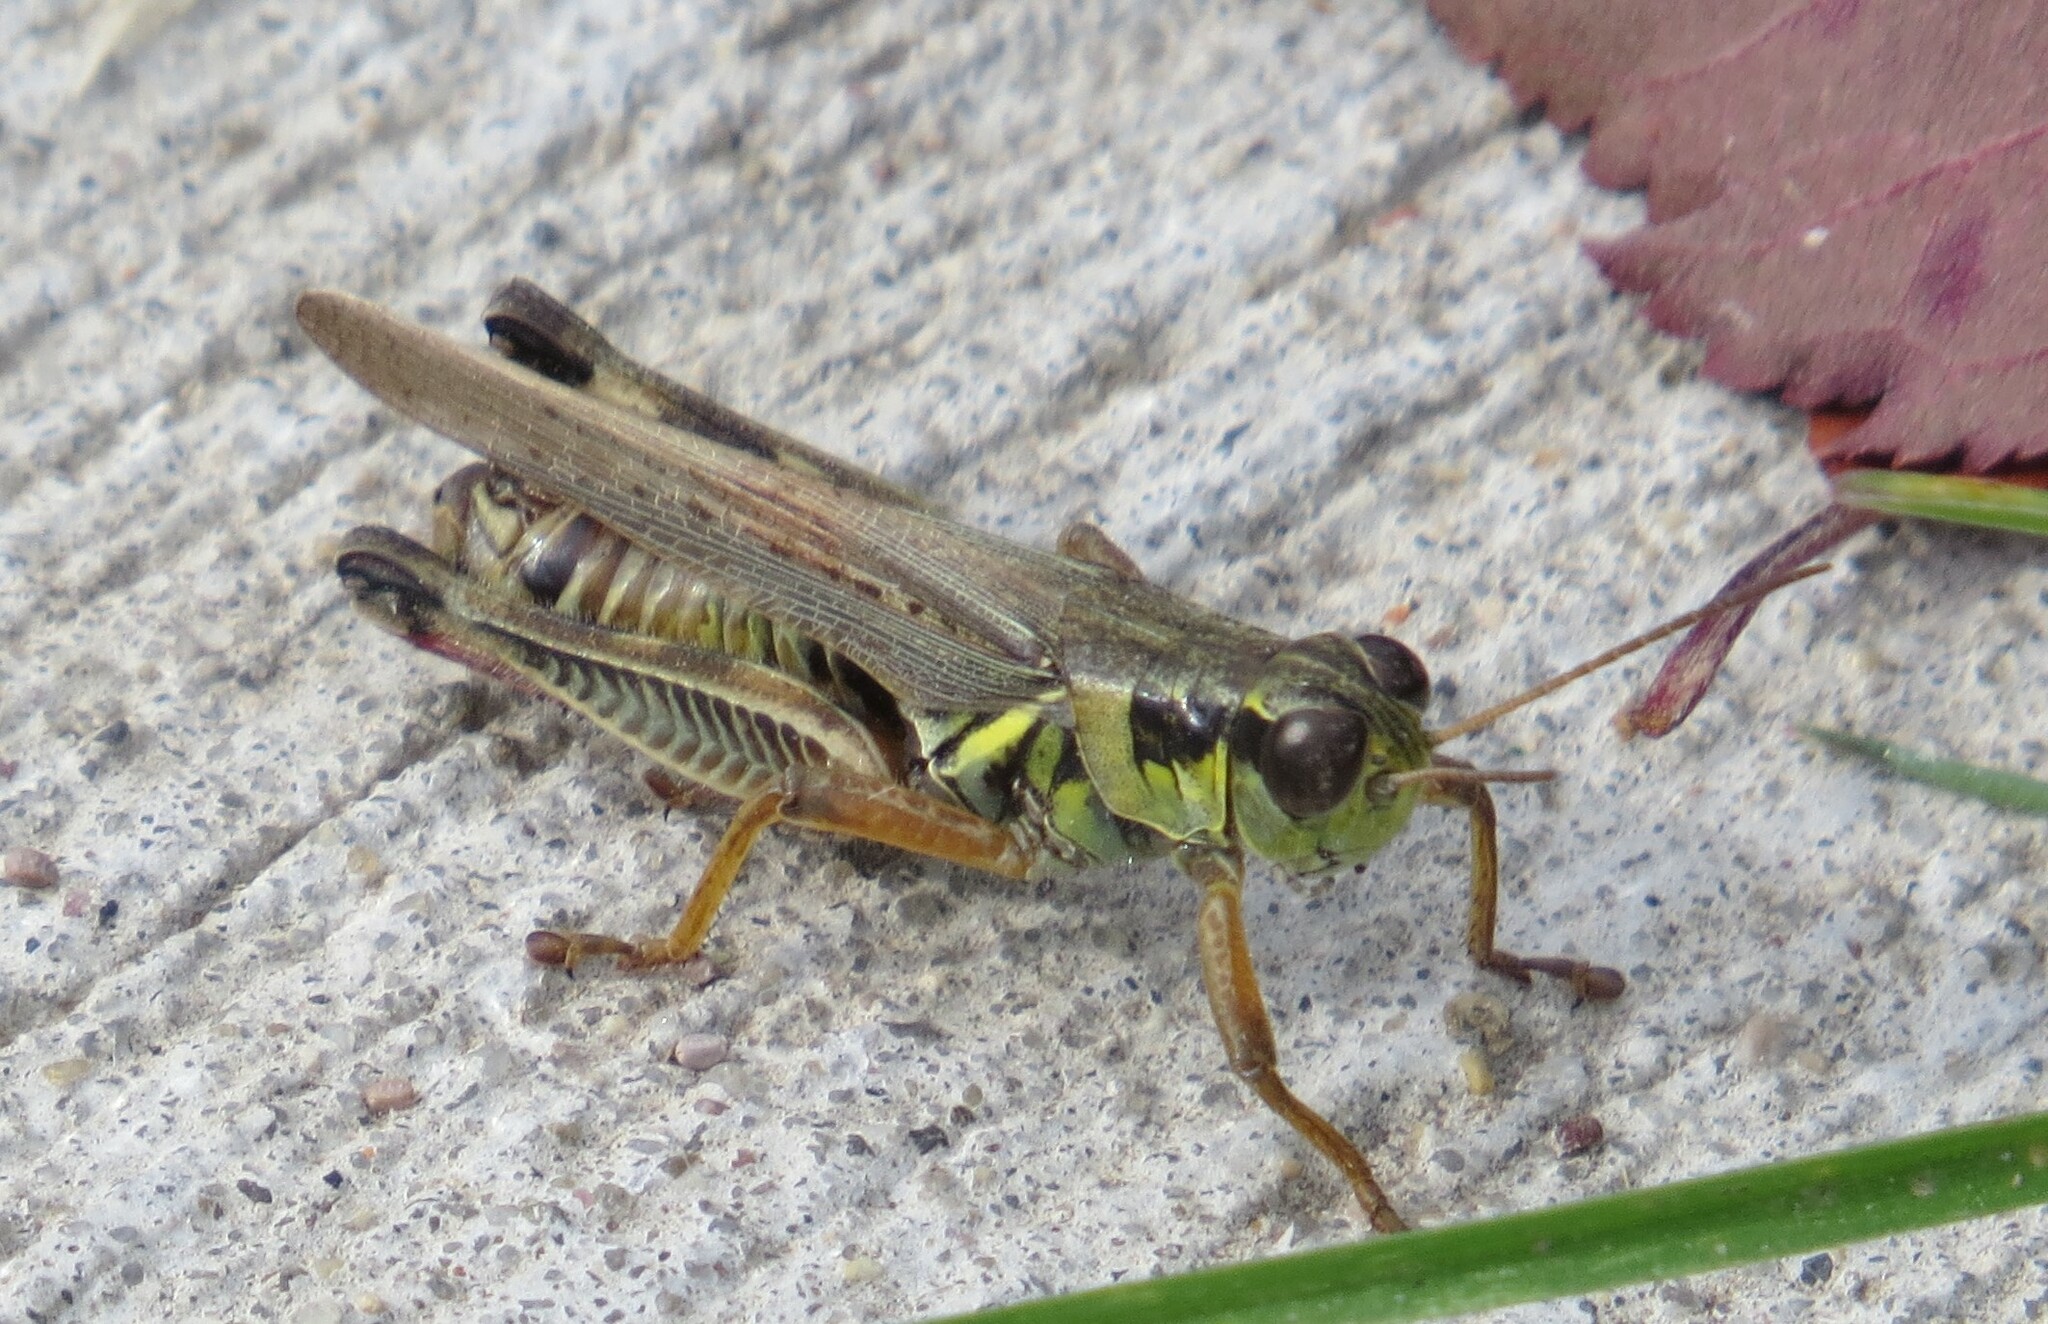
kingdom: Animalia
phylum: Arthropoda
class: Insecta
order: Orthoptera
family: Acrididae
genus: Melanoplus
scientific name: Melanoplus femurrubrum
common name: Red-legged grasshopper
